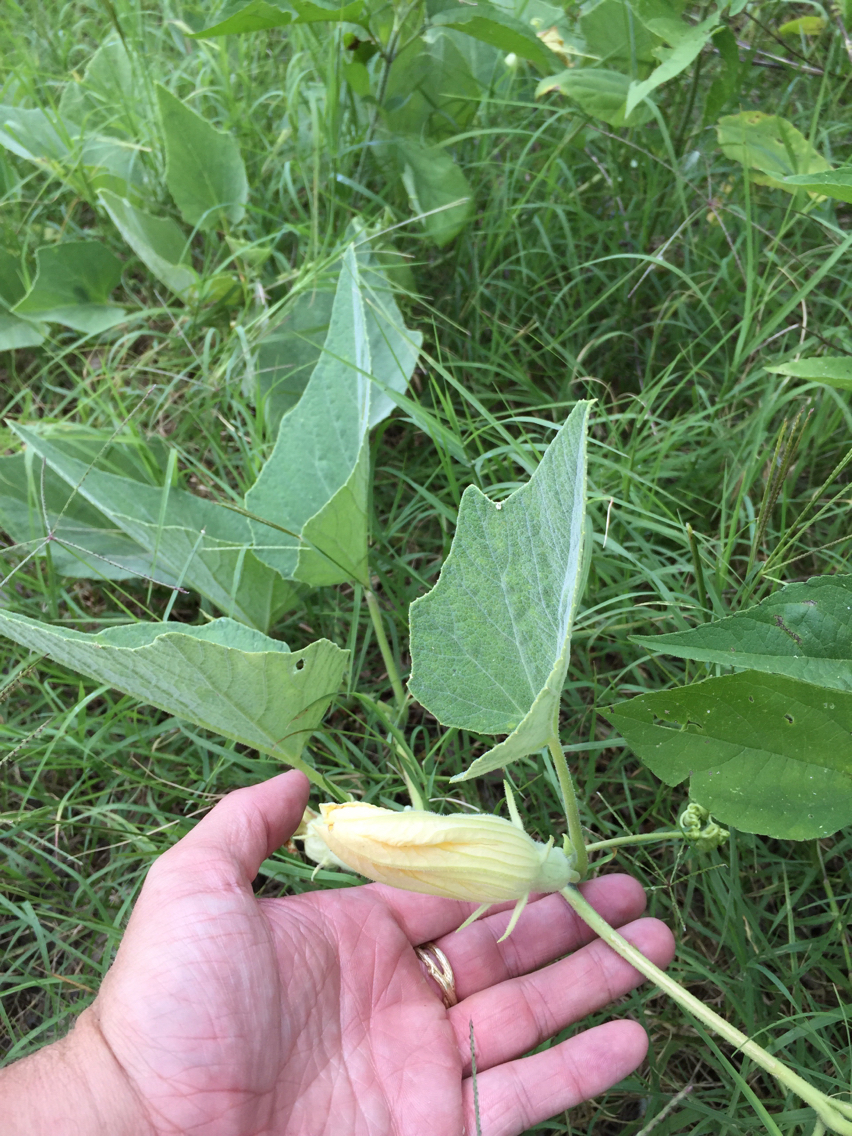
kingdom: Plantae
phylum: Tracheophyta
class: Magnoliopsida
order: Cucurbitales
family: Cucurbitaceae
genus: Cucurbita
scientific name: Cucurbita foetidissima
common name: Buffalo gourd
